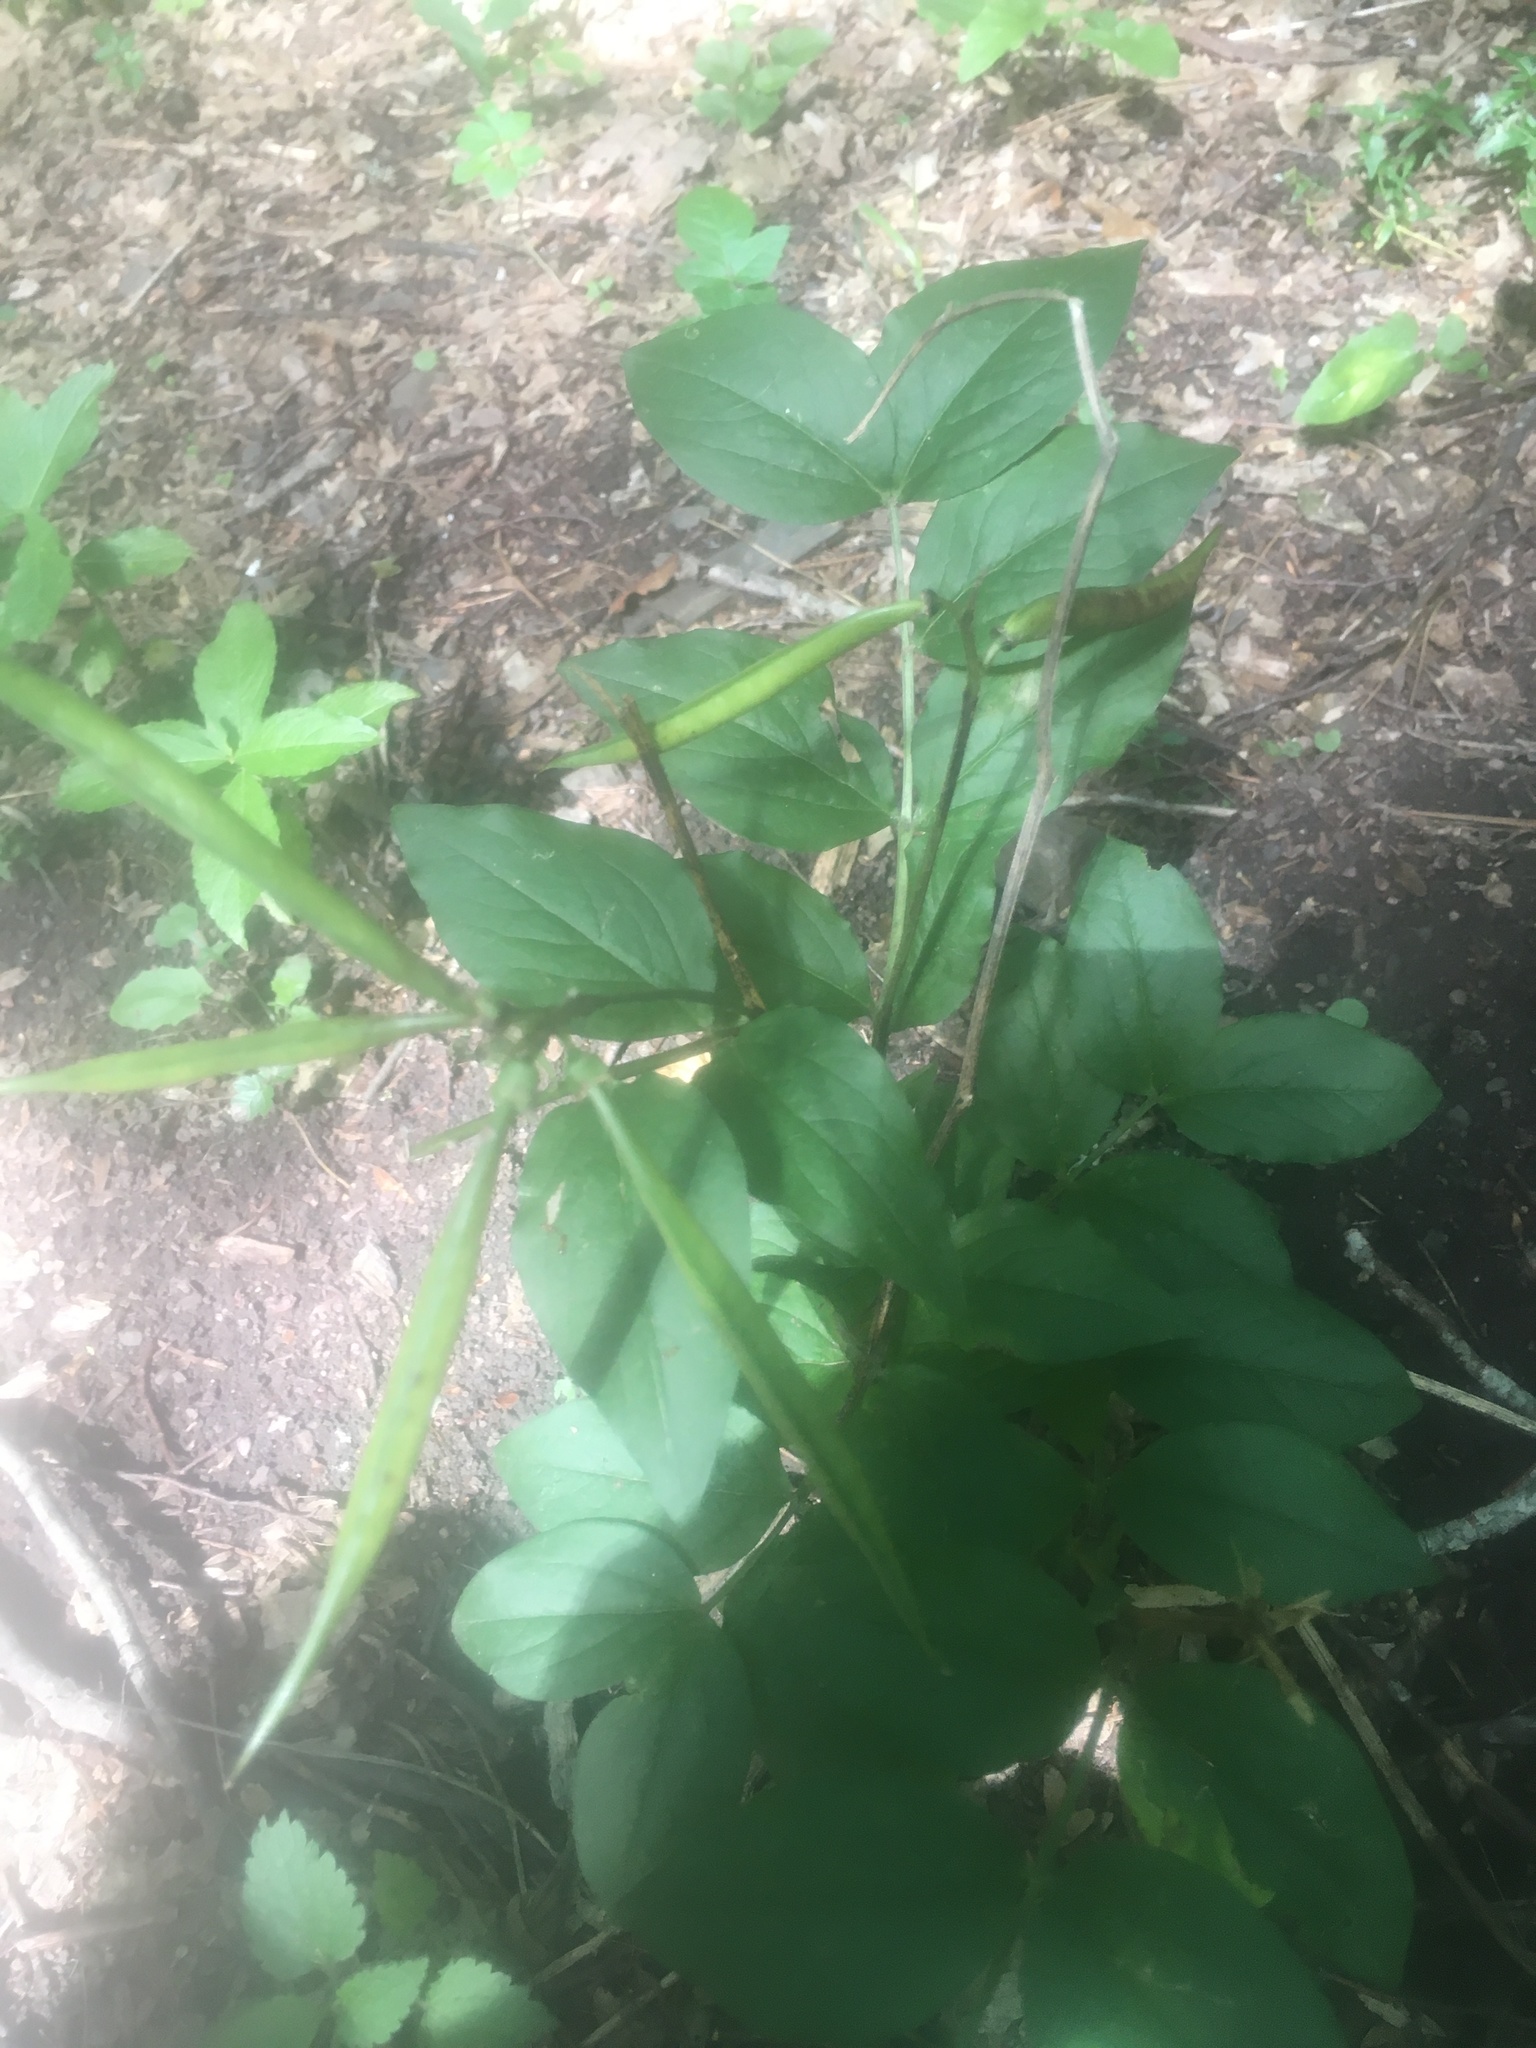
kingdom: Plantae
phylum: Tracheophyta
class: Magnoliopsida
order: Fabales
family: Fabaceae
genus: Lathyrus
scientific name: Lathyrus aureus
